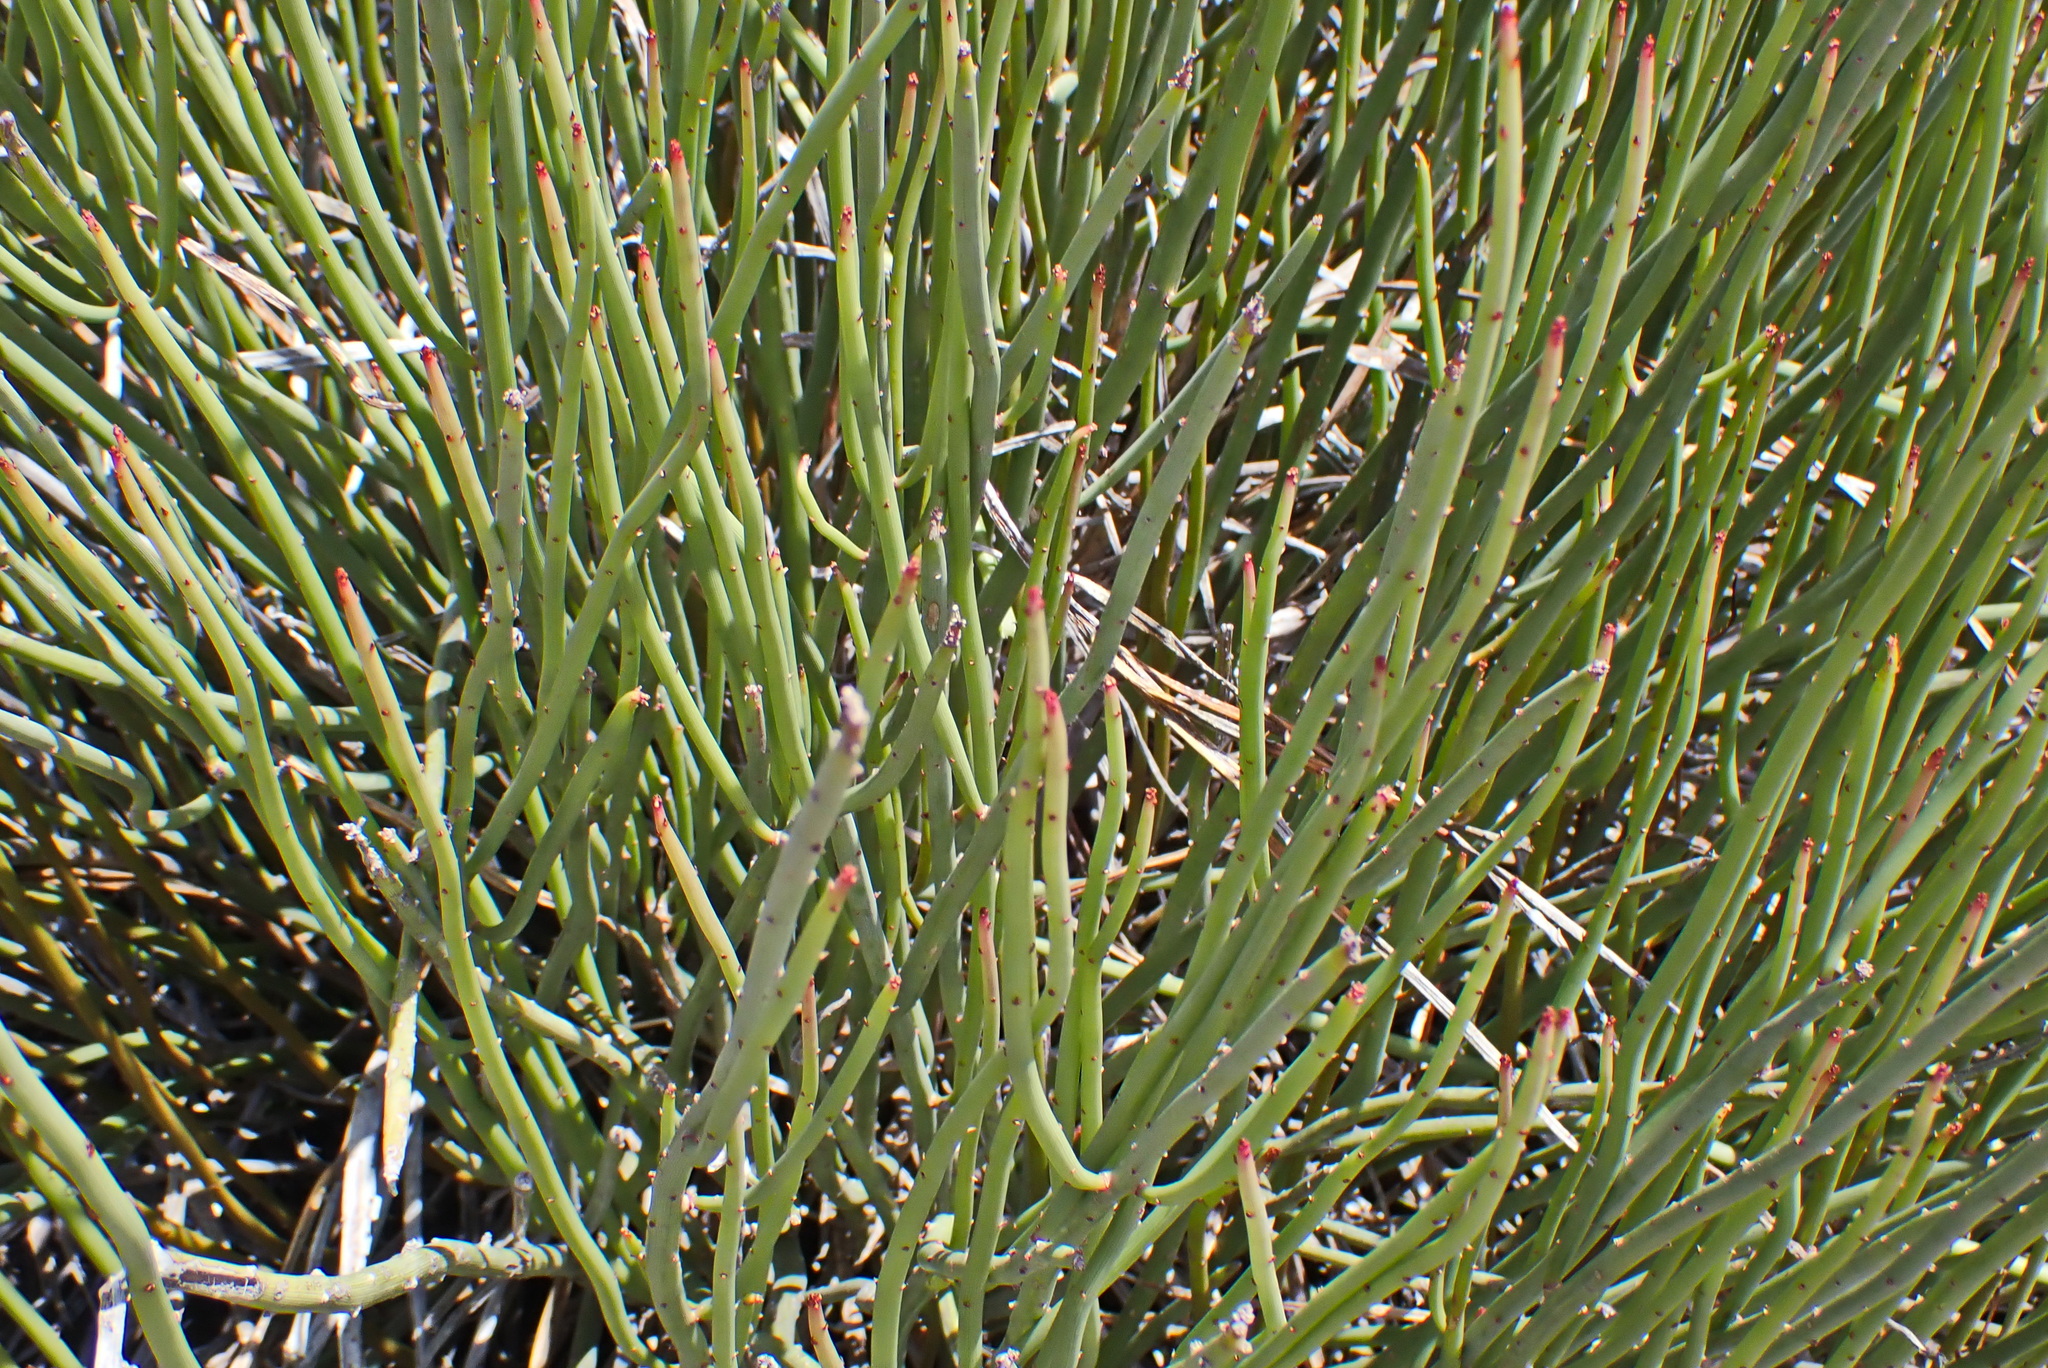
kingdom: Plantae
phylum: Tracheophyta
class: Magnoliopsida
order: Brassicales
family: Capparaceae
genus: Cadaba
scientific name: Cadaba aphylla
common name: Black storm
